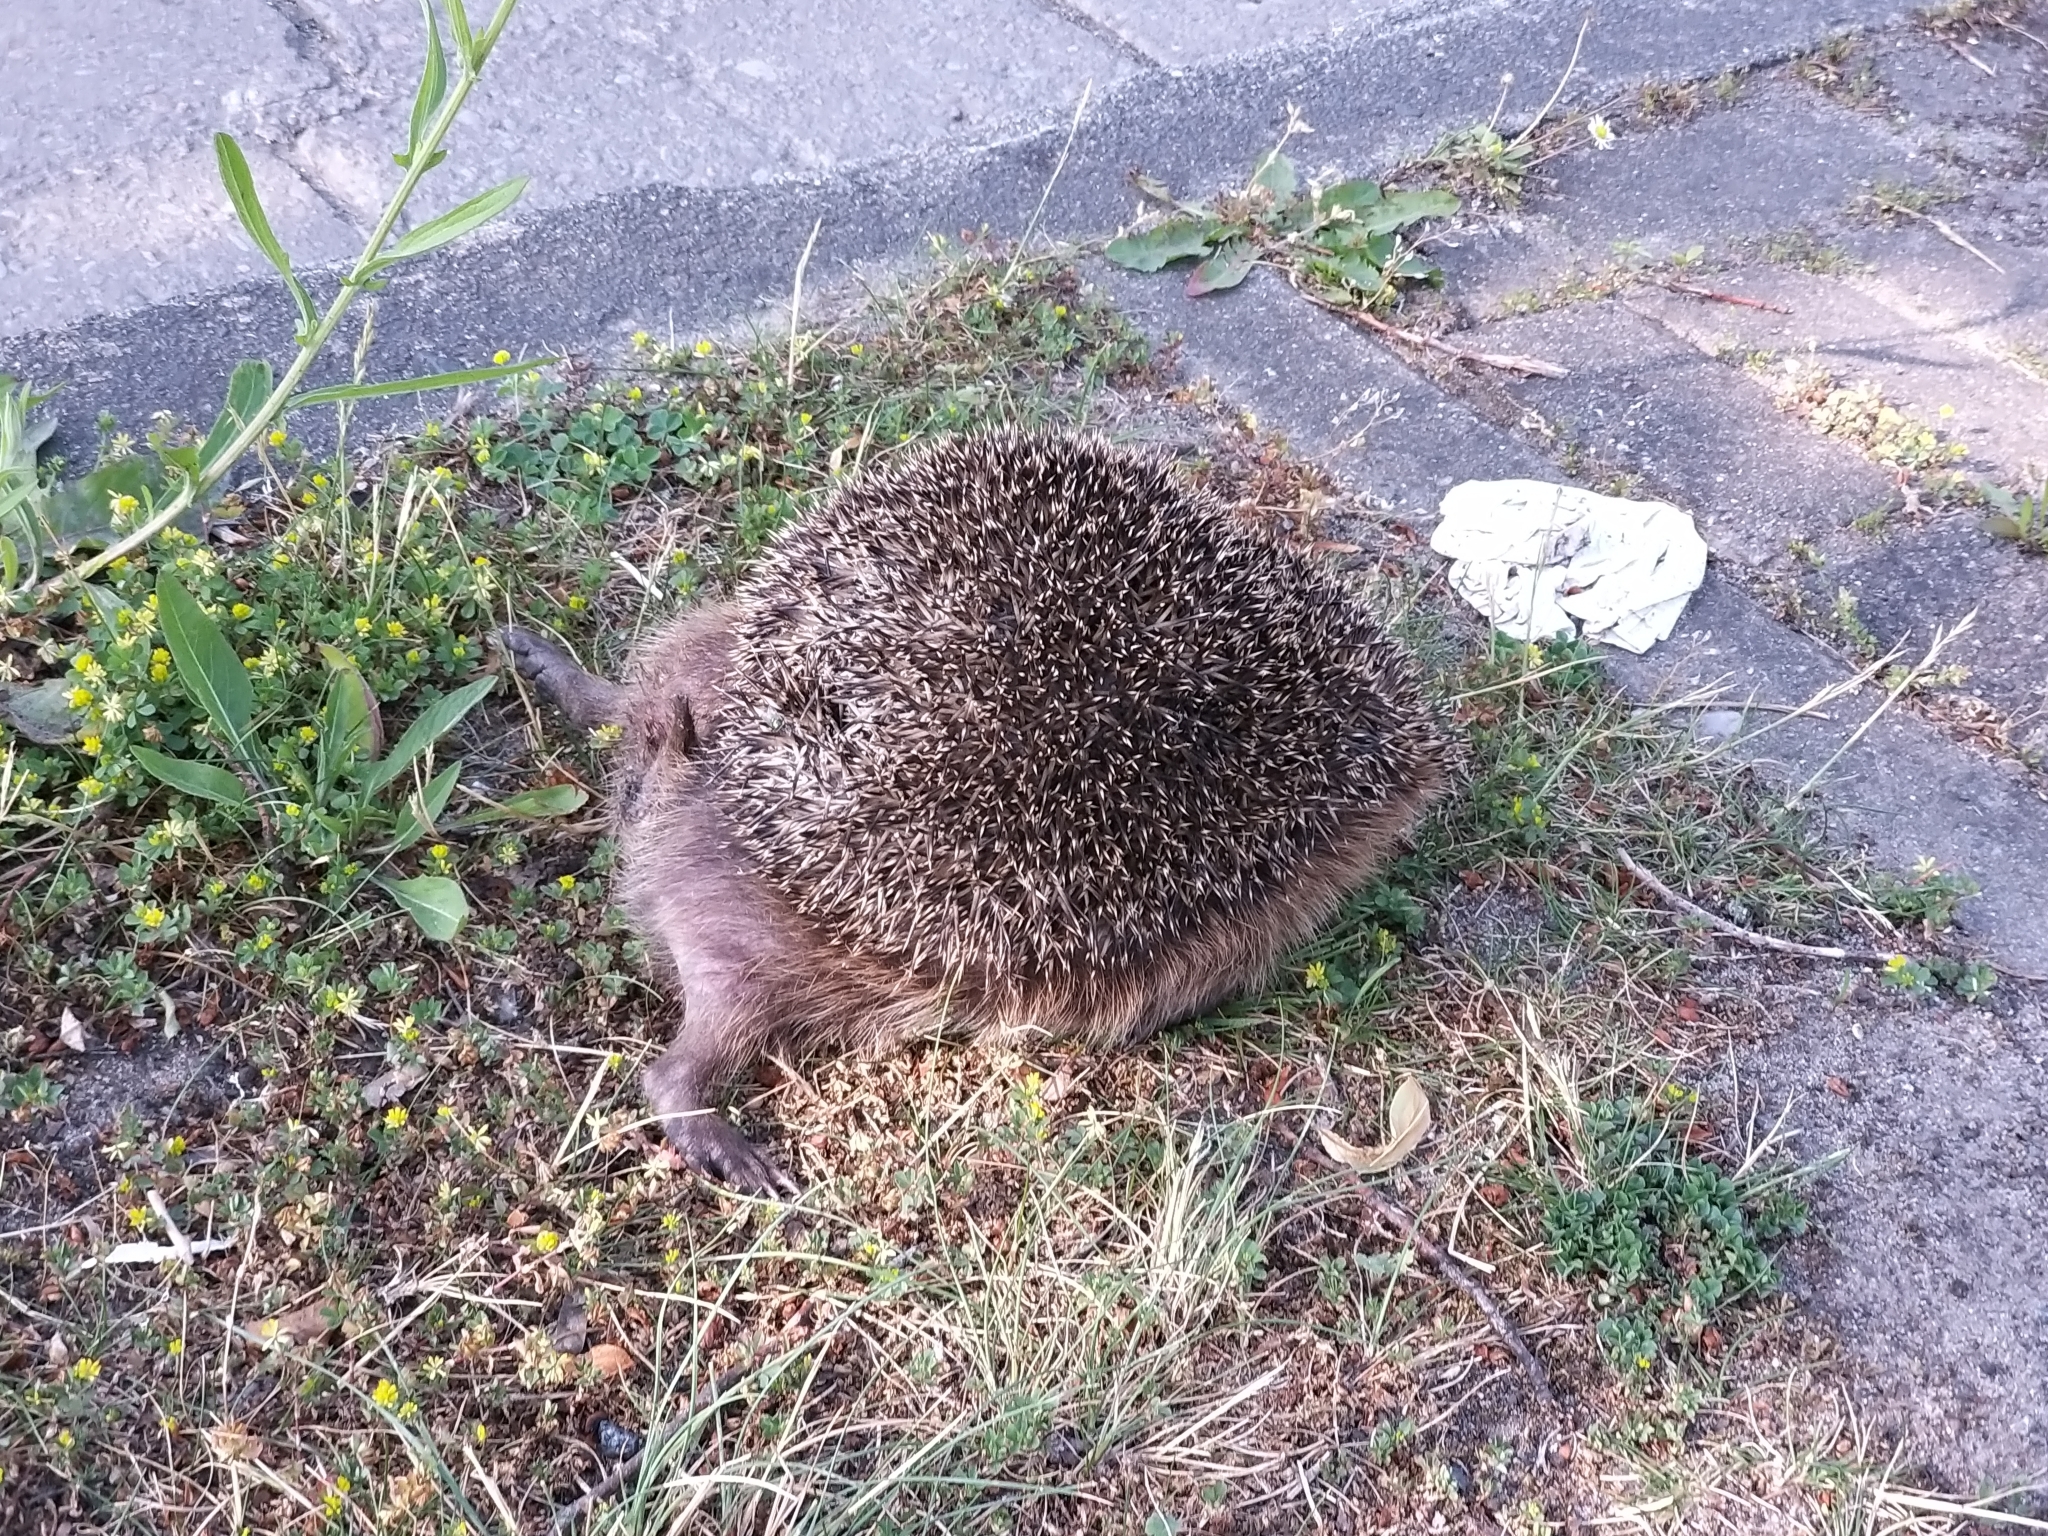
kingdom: Animalia
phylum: Chordata
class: Mammalia
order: Erinaceomorpha
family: Erinaceidae
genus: Erinaceus
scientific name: Erinaceus europaeus
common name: West european hedgehog
